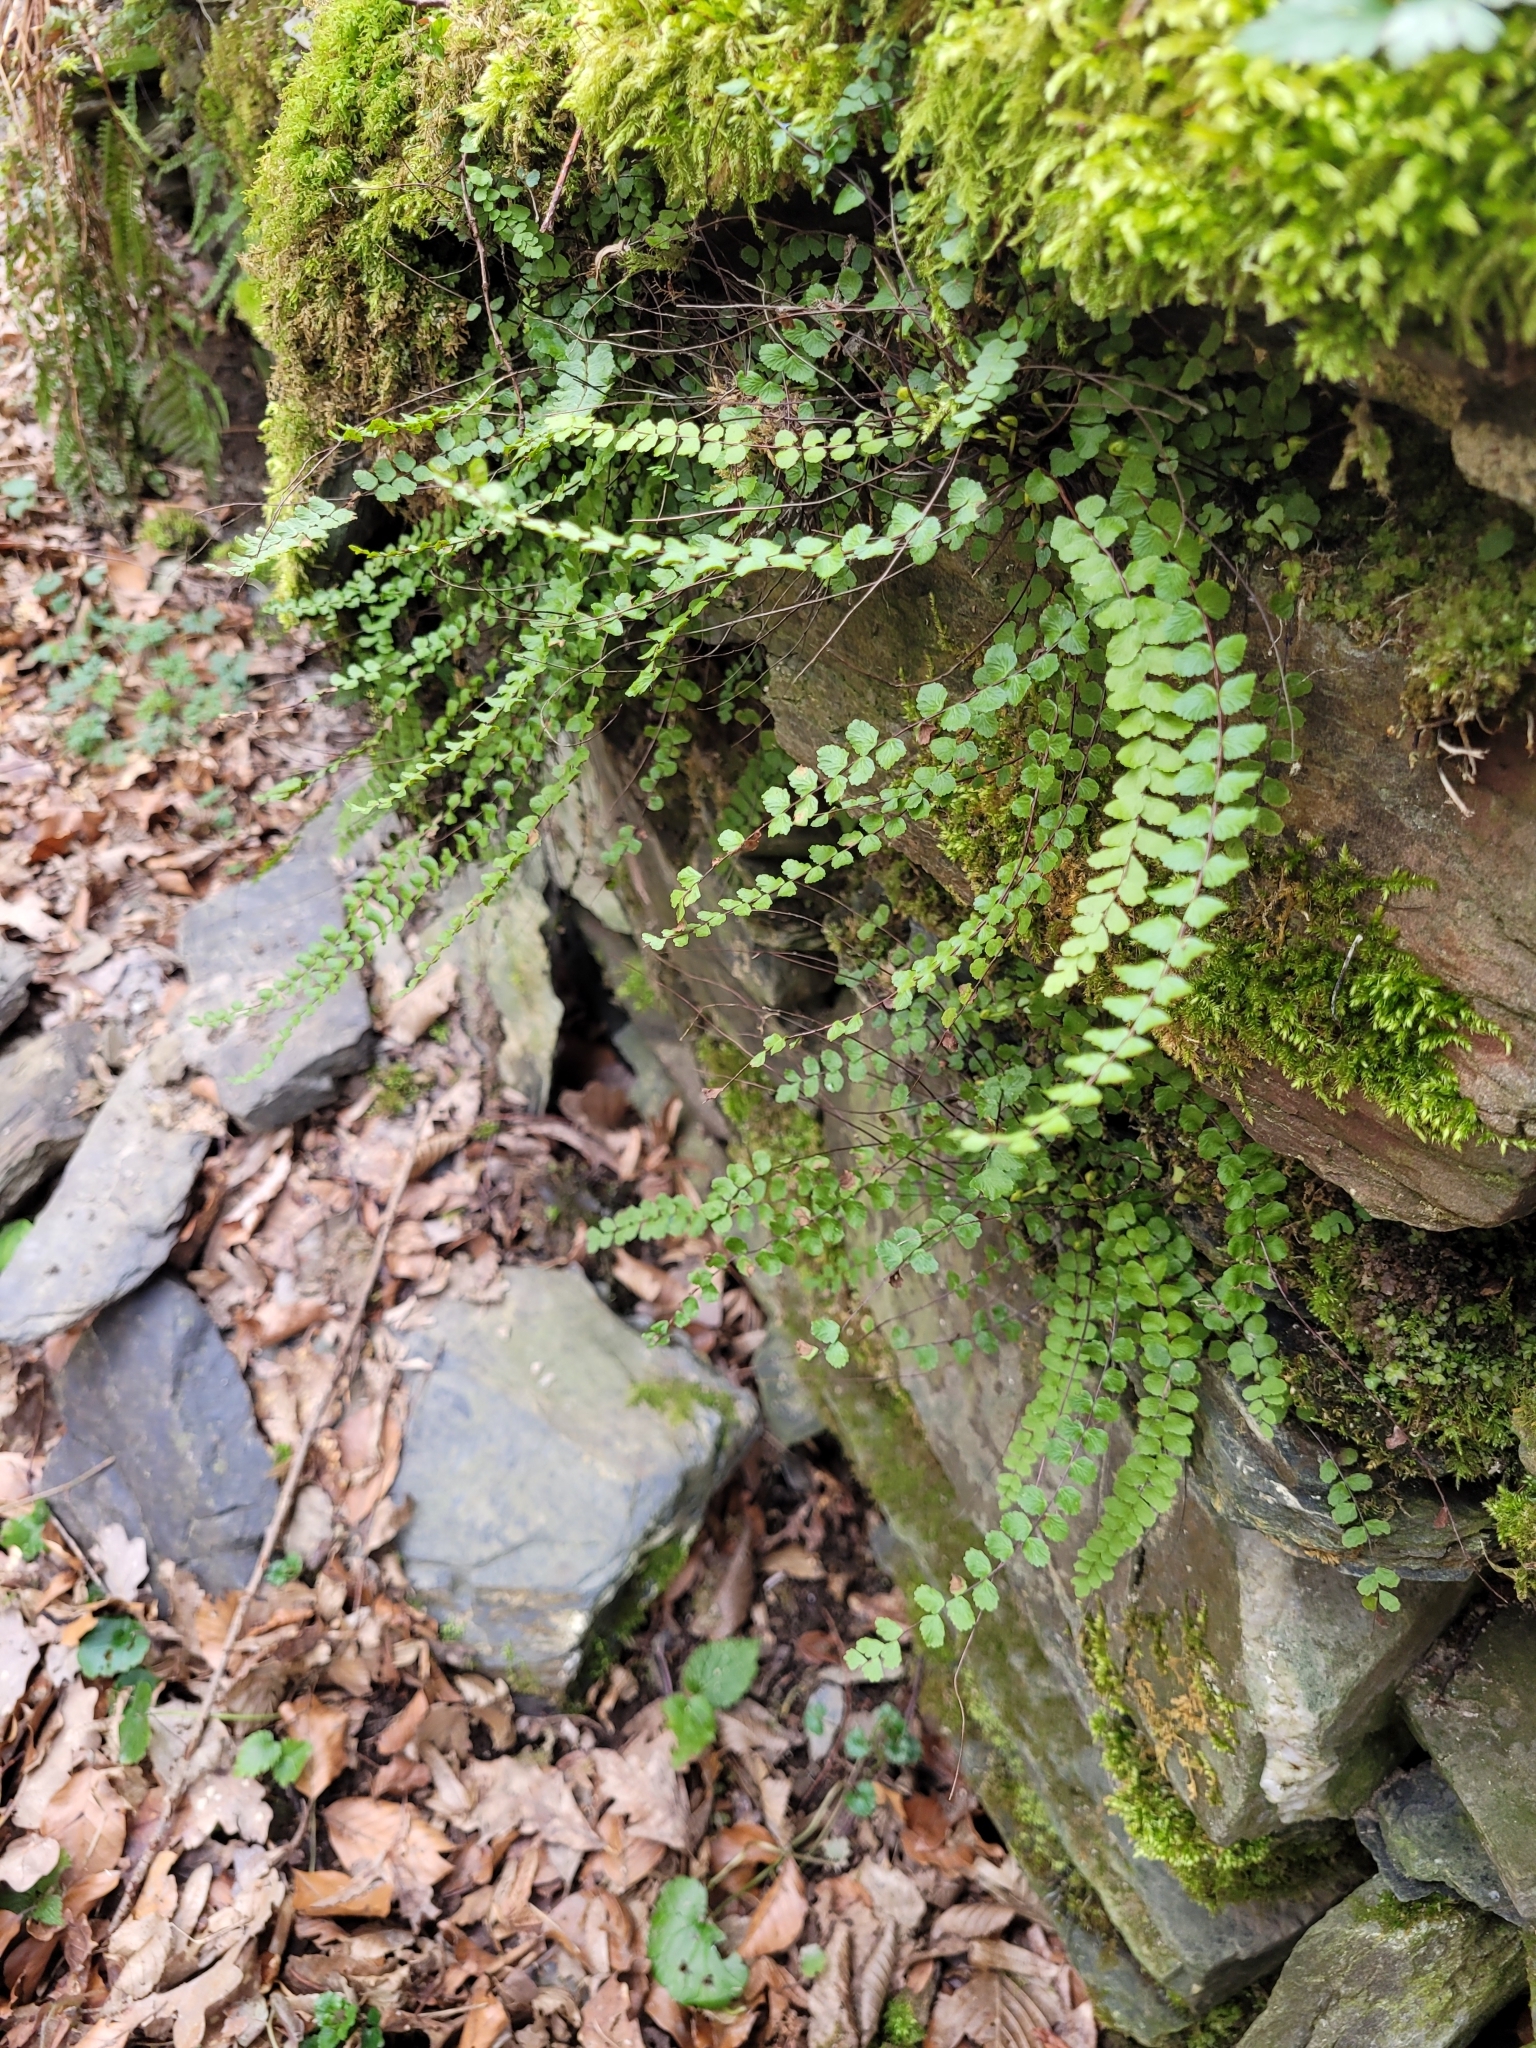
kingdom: Plantae
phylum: Tracheophyta
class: Polypodiopsida
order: Polypodiales
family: Aspleniaceae
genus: Asplenium
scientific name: Asplenium trichomanes
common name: Maidenhair spleenwort
